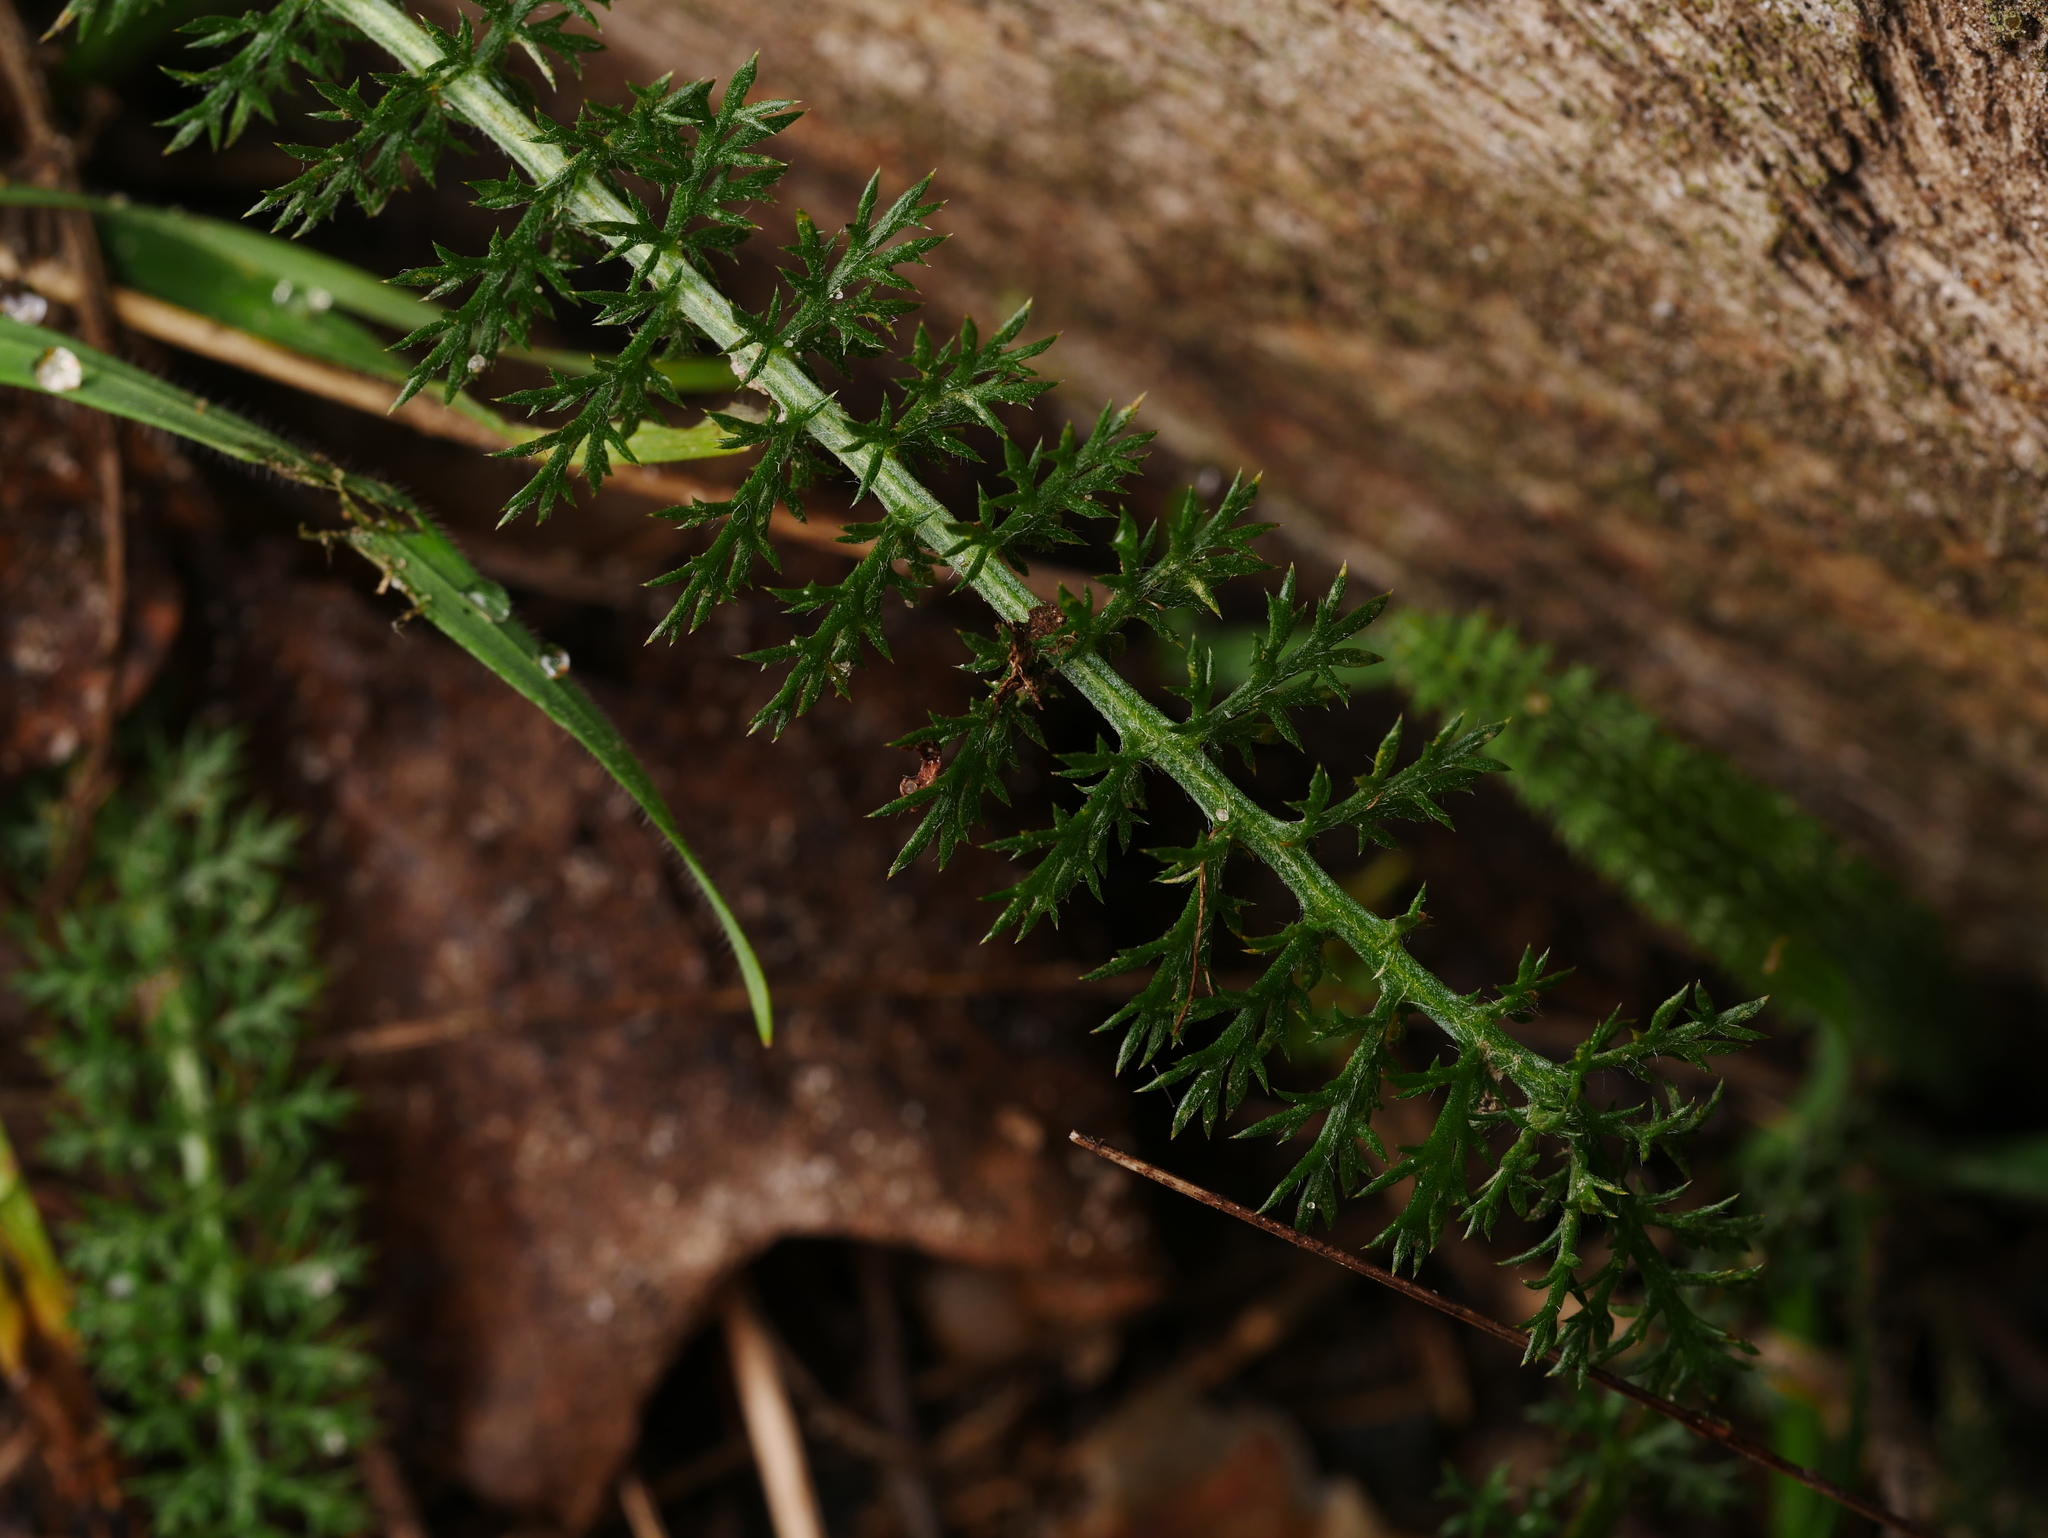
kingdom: Plantae
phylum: Tracheophyta
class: Magnoliopsida
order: Asterales
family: Asteraceae
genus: Achillea
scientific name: Achillea millefolium
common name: Yarrow
